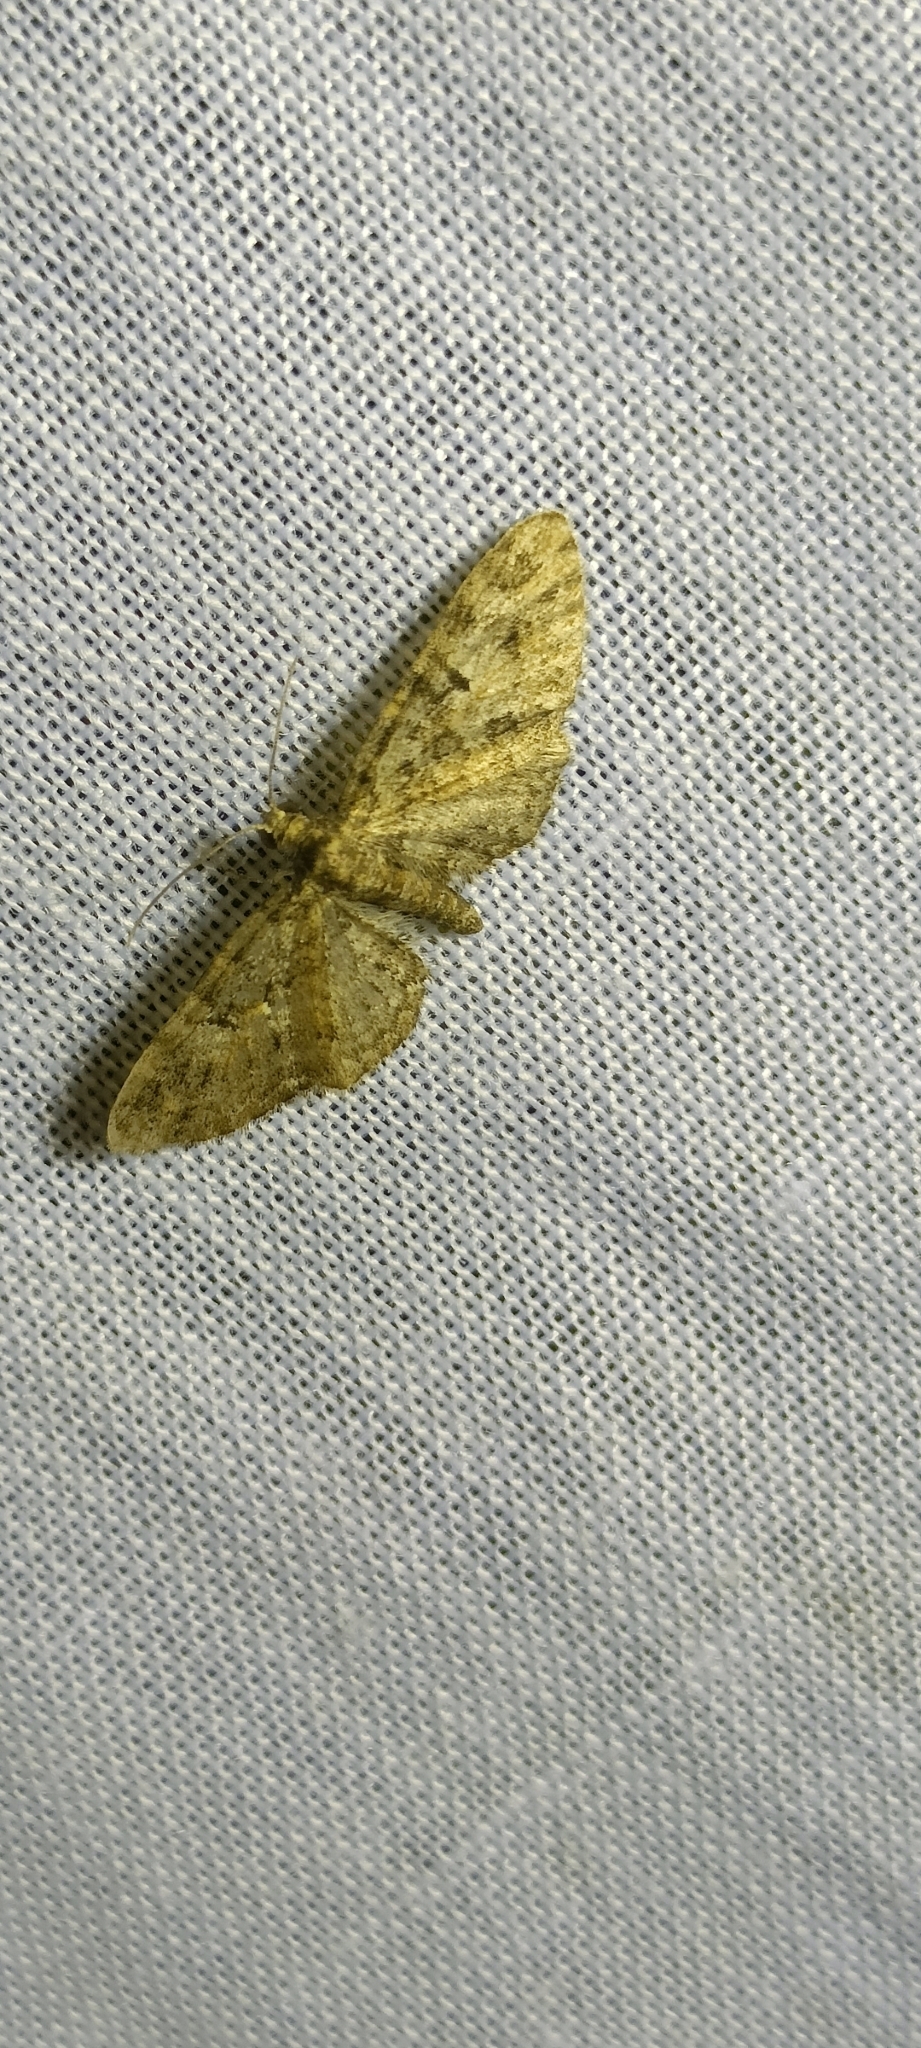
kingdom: Animalia
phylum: Arthropoda
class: Insecta
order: Lepidoptera
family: Geometridae
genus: Eupithecia
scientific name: Eupithecia exiguata
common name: Mottled pug
